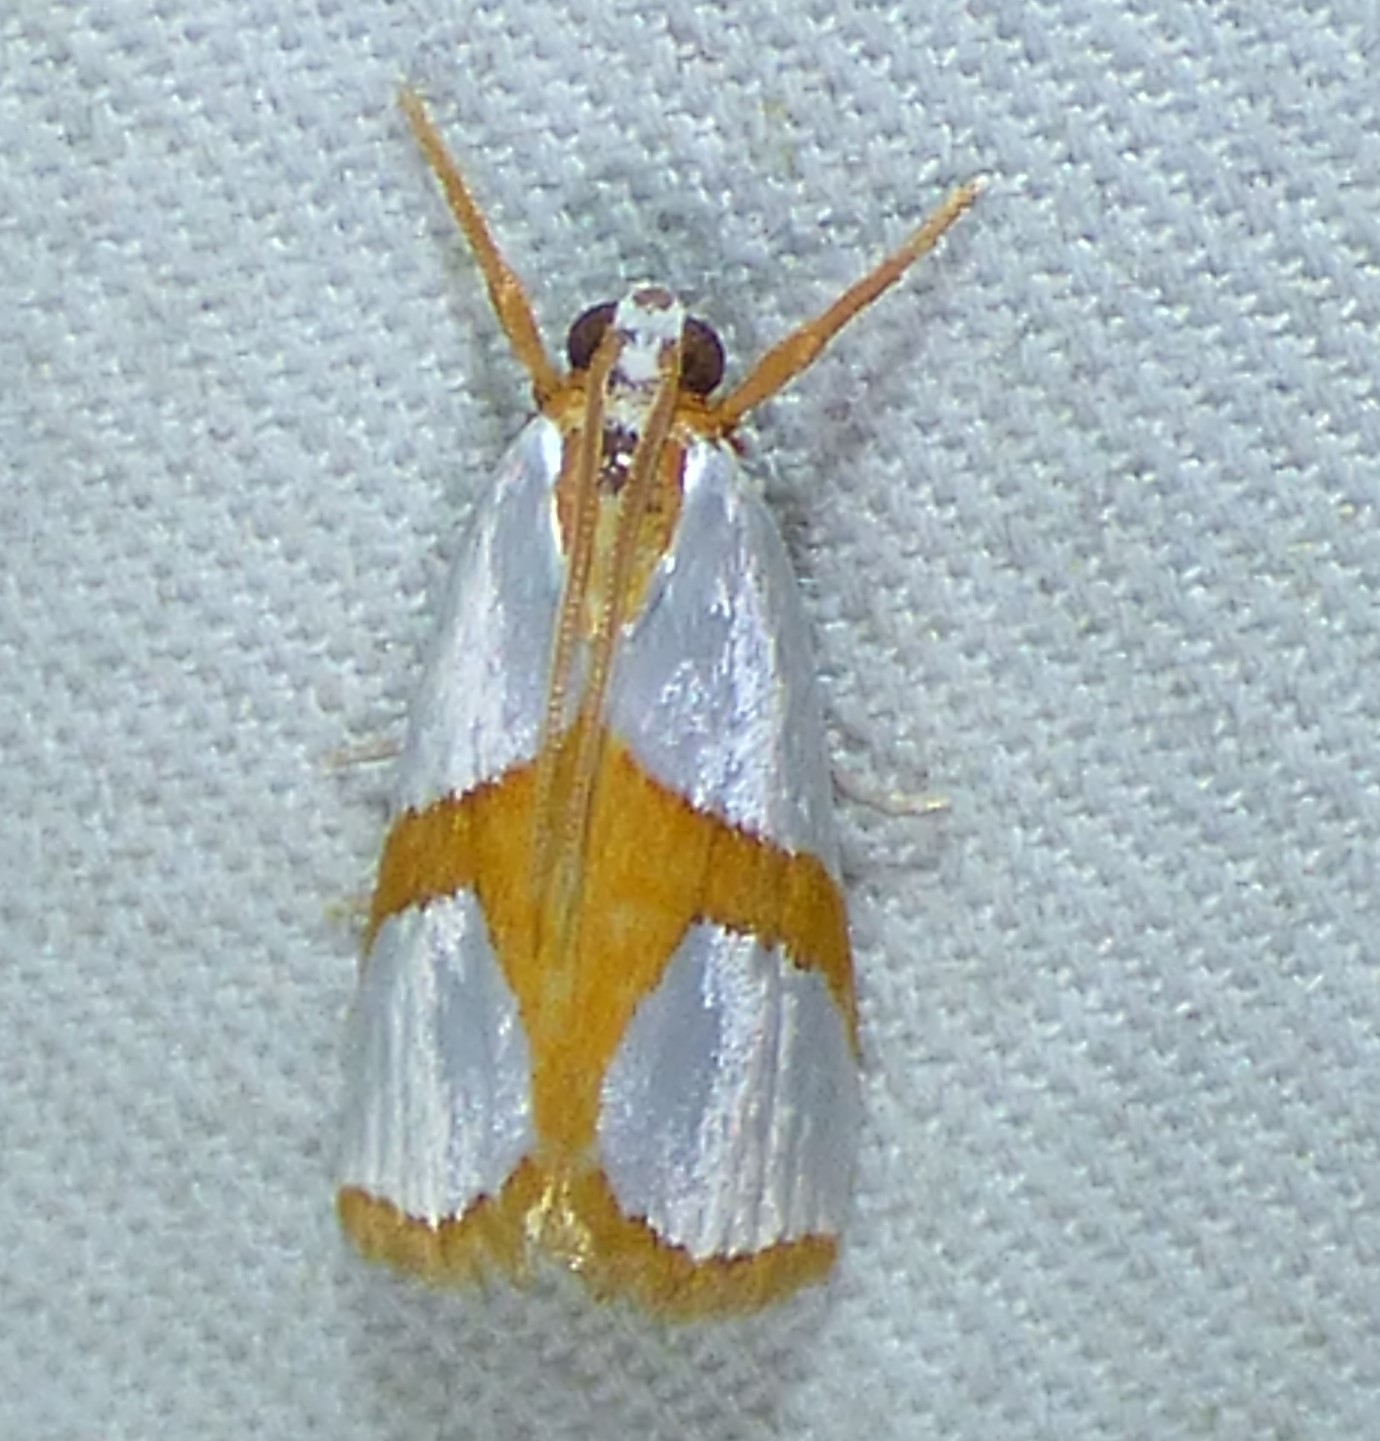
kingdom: Animalia
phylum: Arthropoda
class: Insecta
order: Lepidoptera
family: Crambidae
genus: Argyria
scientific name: Argyria auratella
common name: Curve-lined argyria moth
